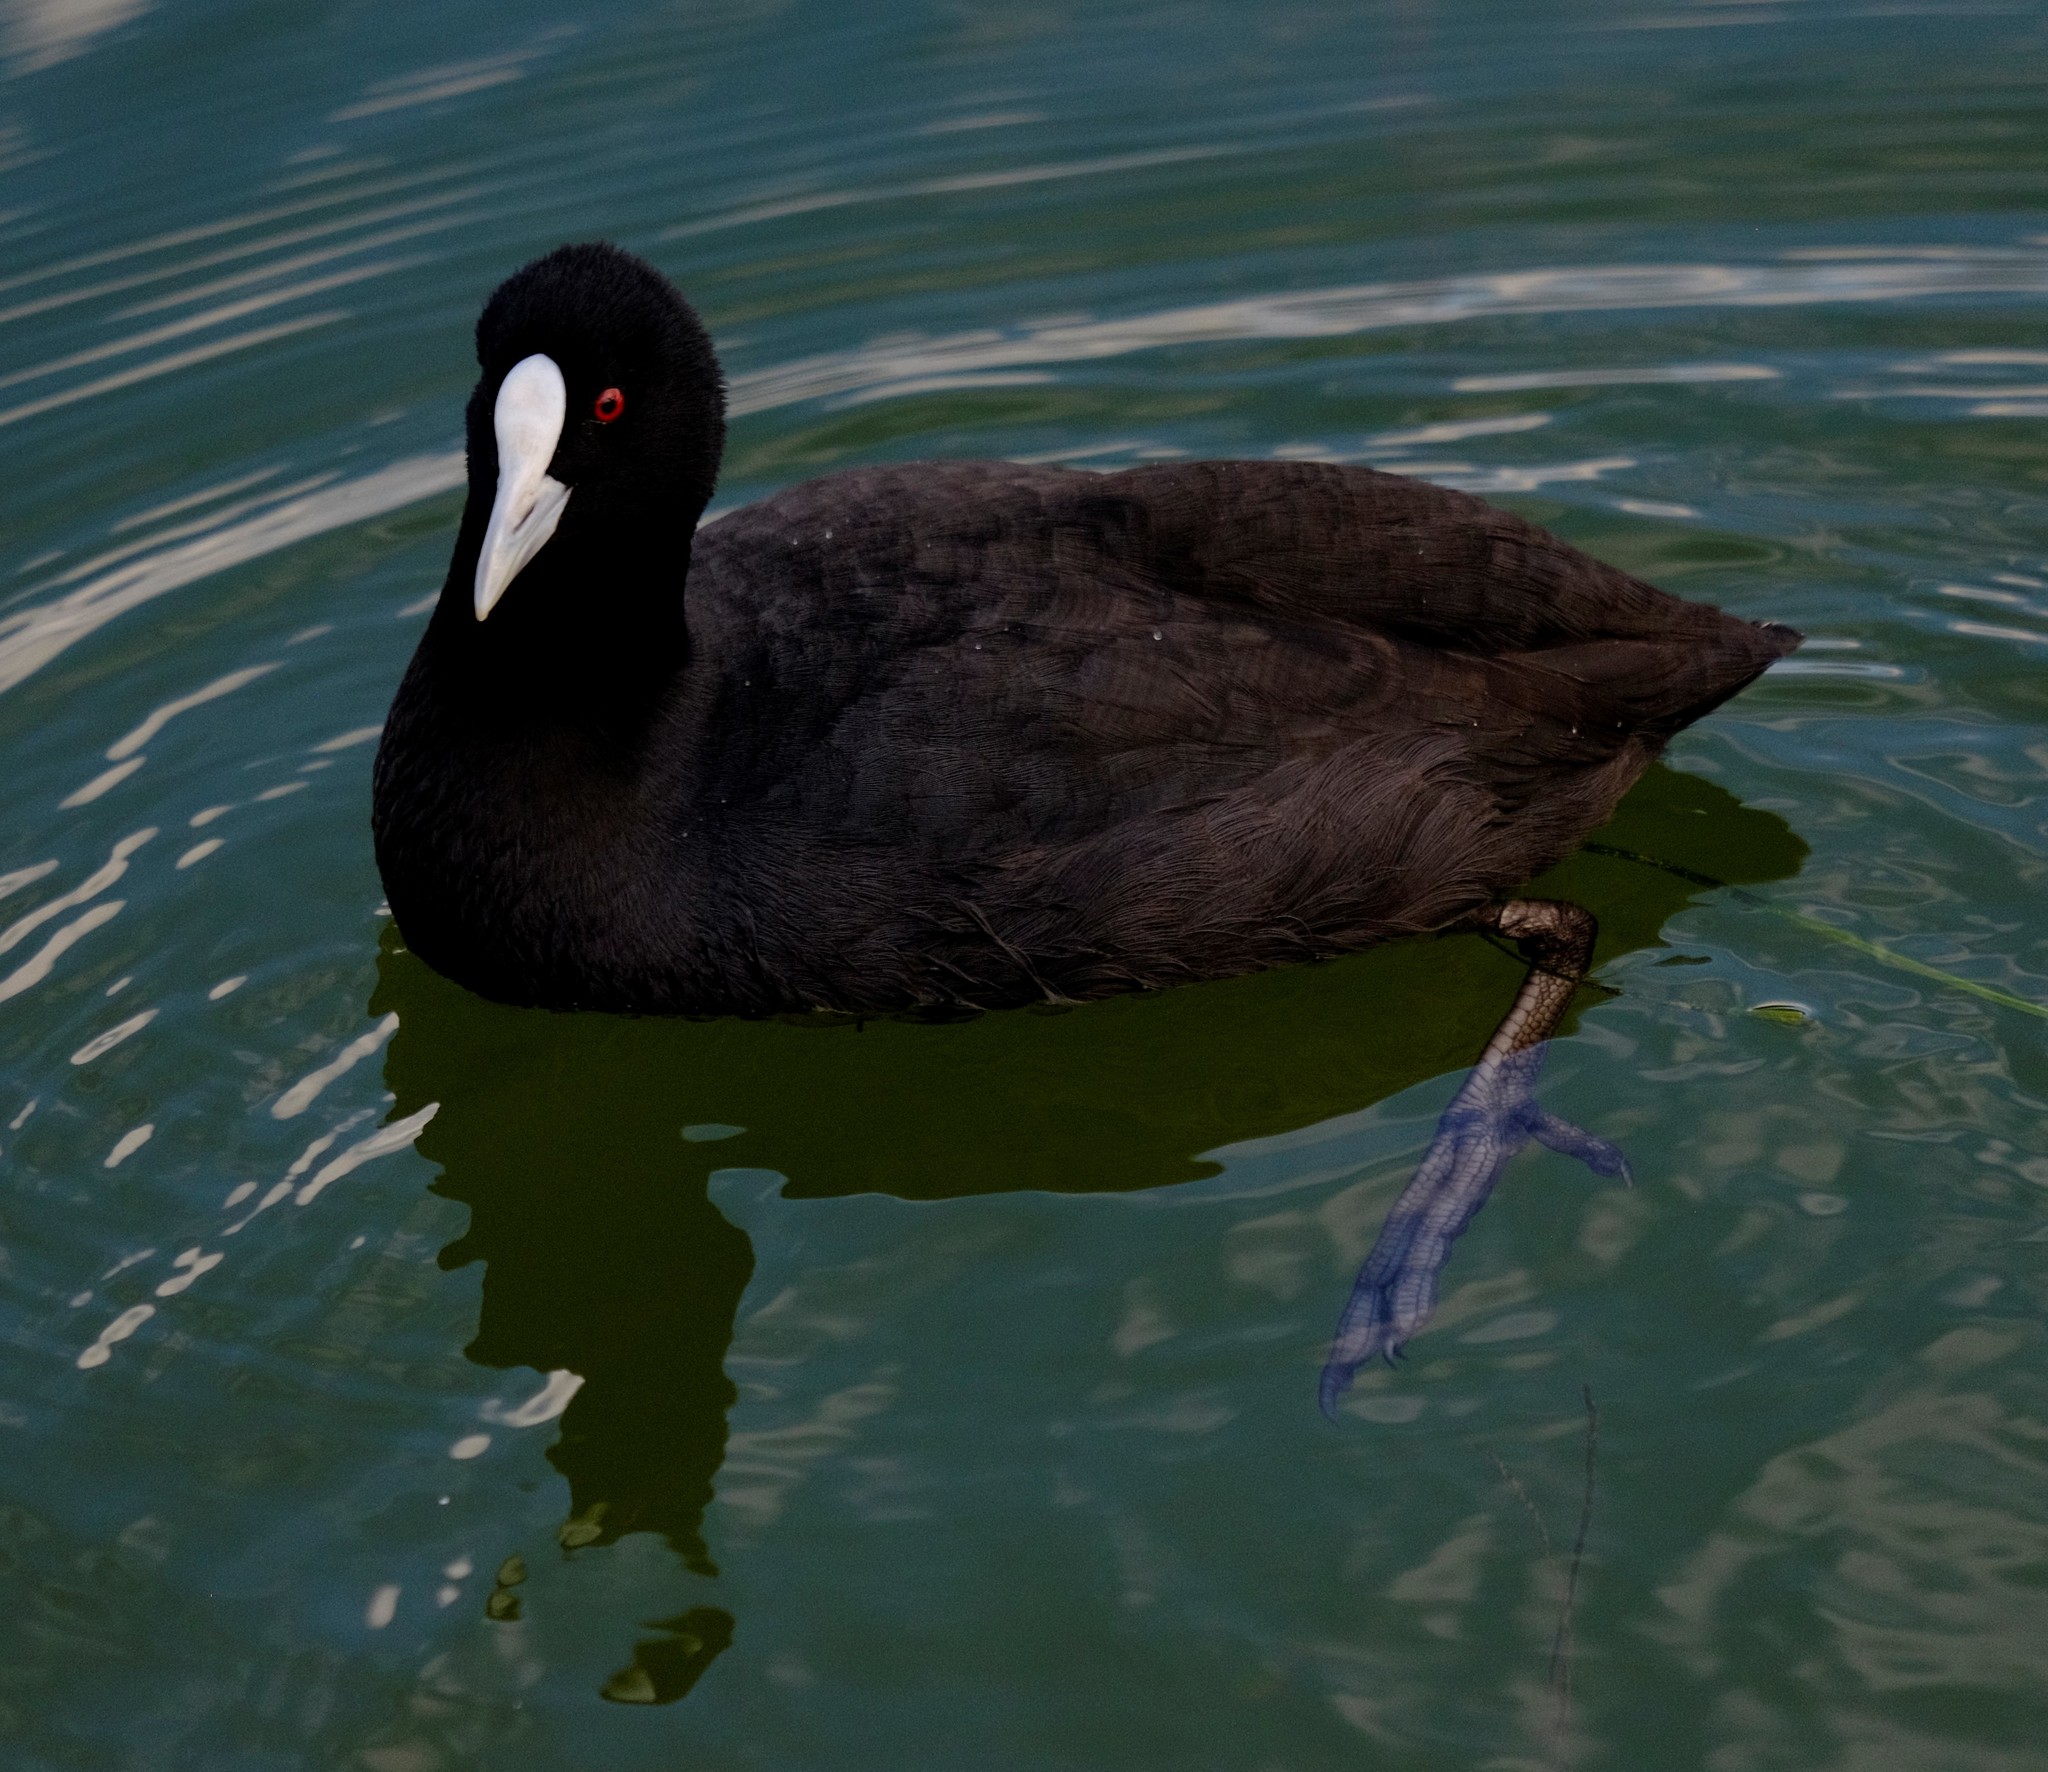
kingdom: Animalia
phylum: Chordata
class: Aves
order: Gruiformes
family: Rallidae
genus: Fulica
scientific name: Fulica atra
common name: Eurasian coot
